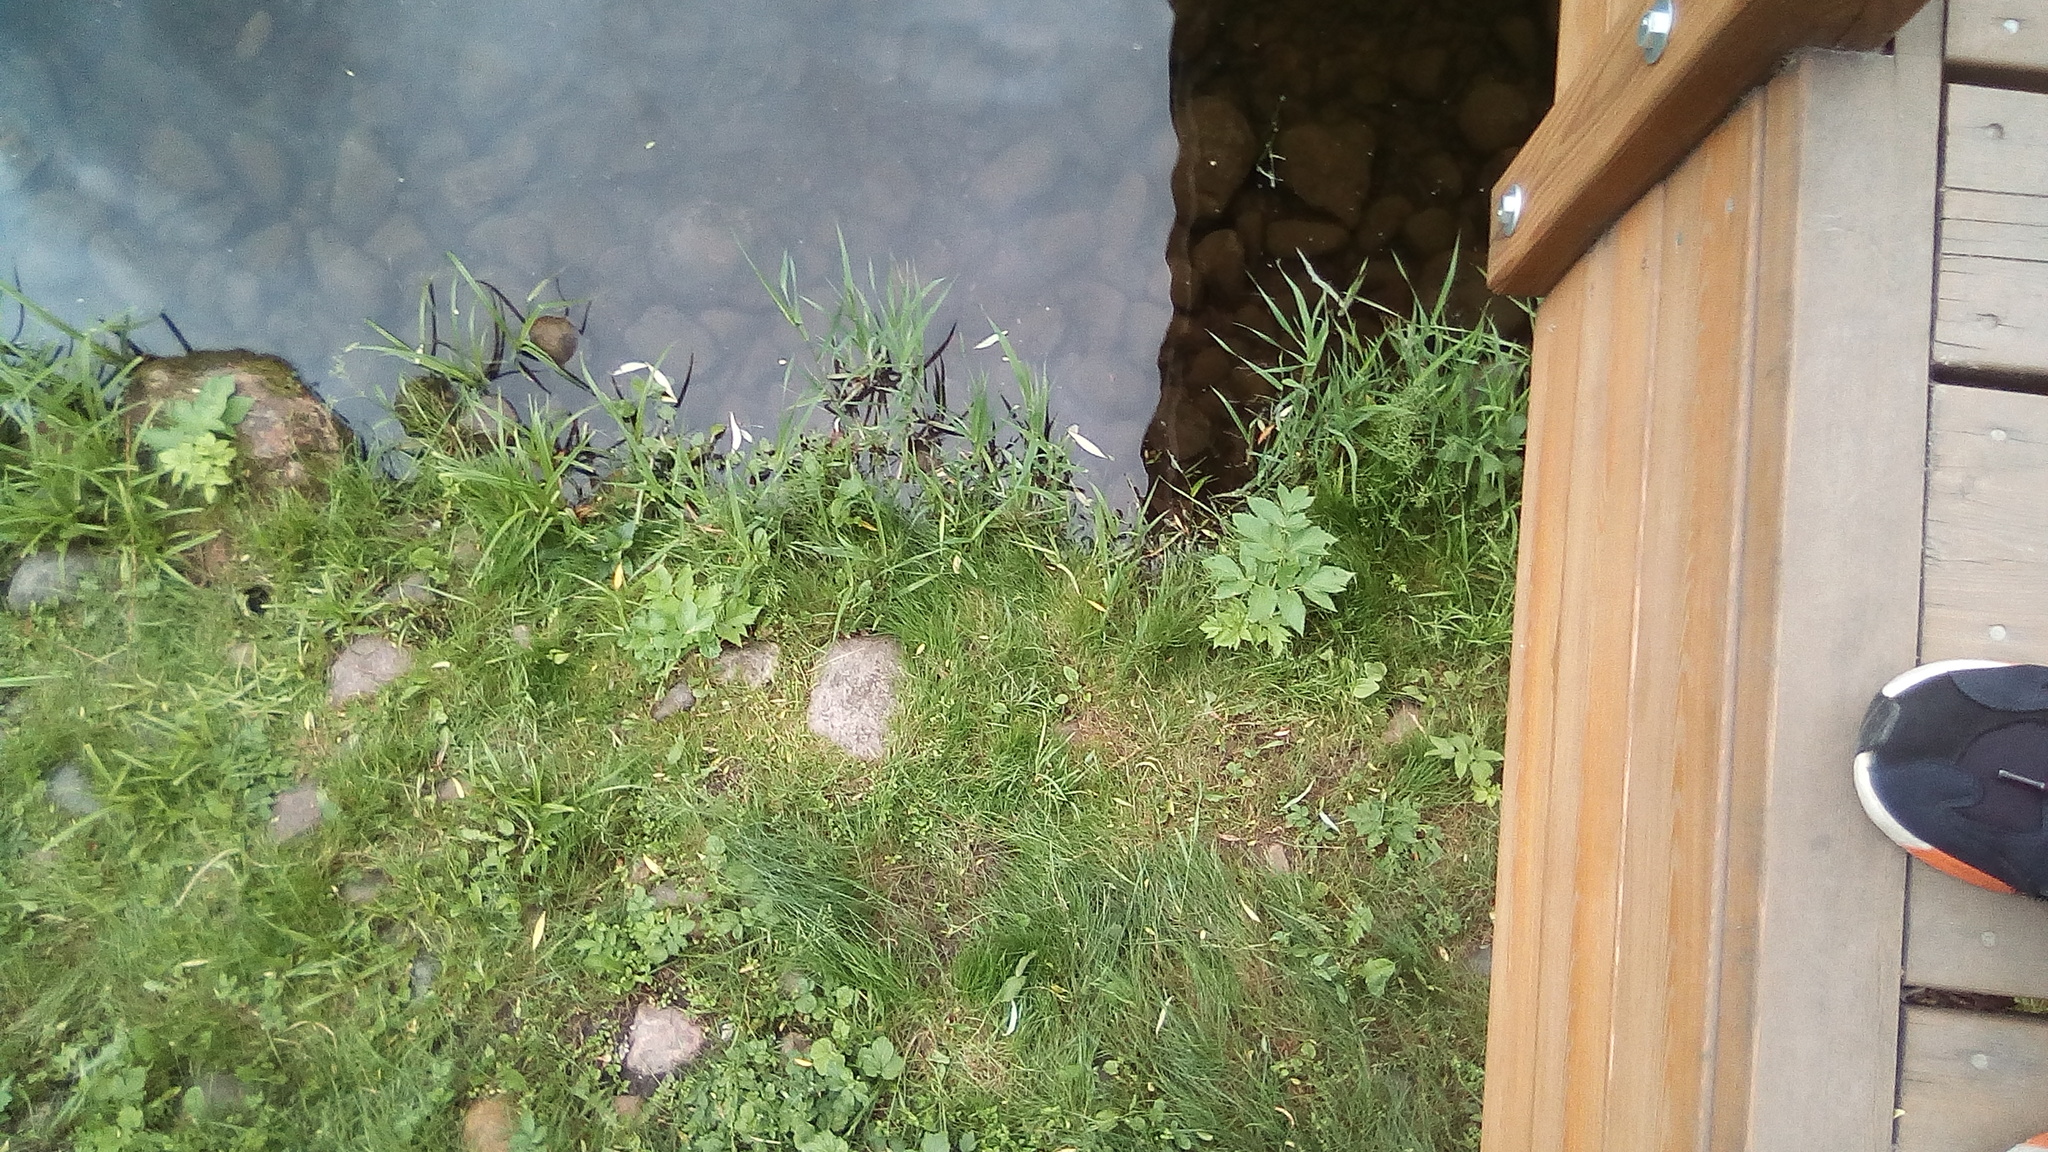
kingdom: Plantae
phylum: Tracheophyta
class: Magnoliopsida
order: Apiales
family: Apiaceae
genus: Angelica
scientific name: Angelica archangelica
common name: Garden angelica
